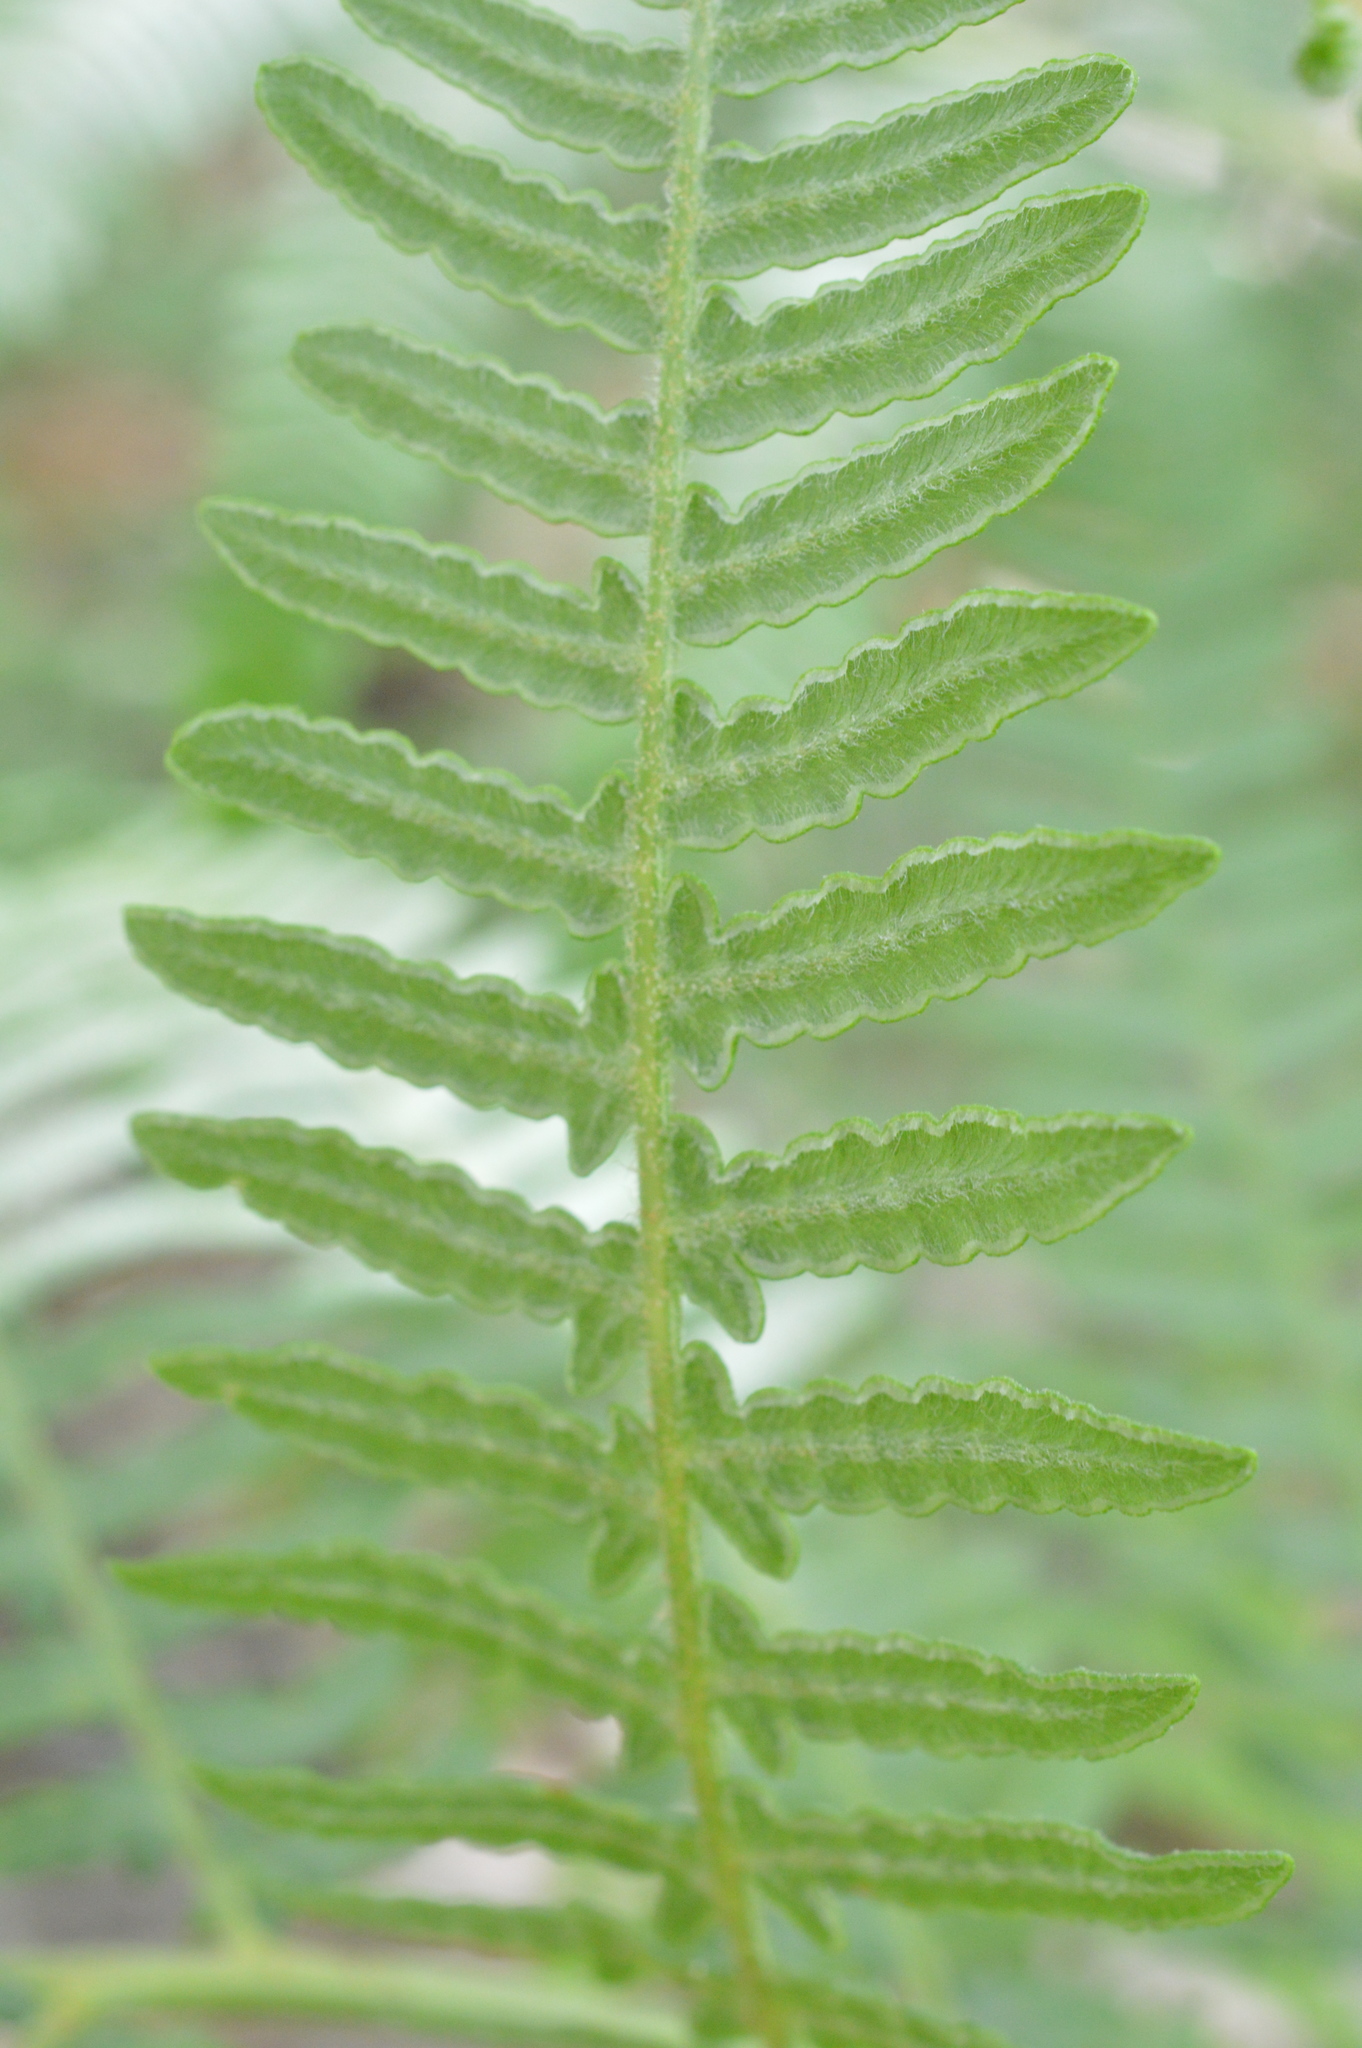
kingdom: Plantae
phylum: Tracheophyta
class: Polypodiopsida
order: Polypodiales
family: Dennstaedtiaceae
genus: Pteridium
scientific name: Pteridium aquilinum
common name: Bracken
